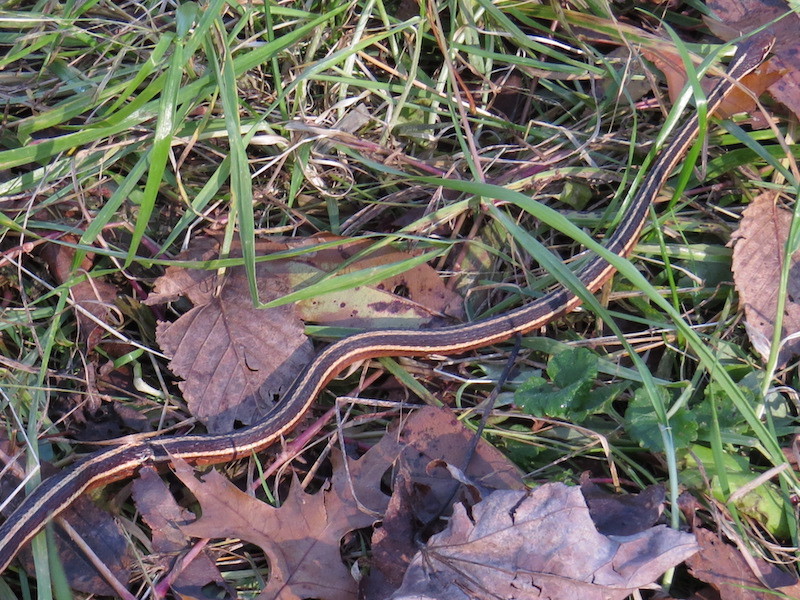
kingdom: Animalia
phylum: Chordata
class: Squamata
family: Colubridae
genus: Thamnophis
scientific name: Thamnophis saurita
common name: Eastern ribbonsnake
